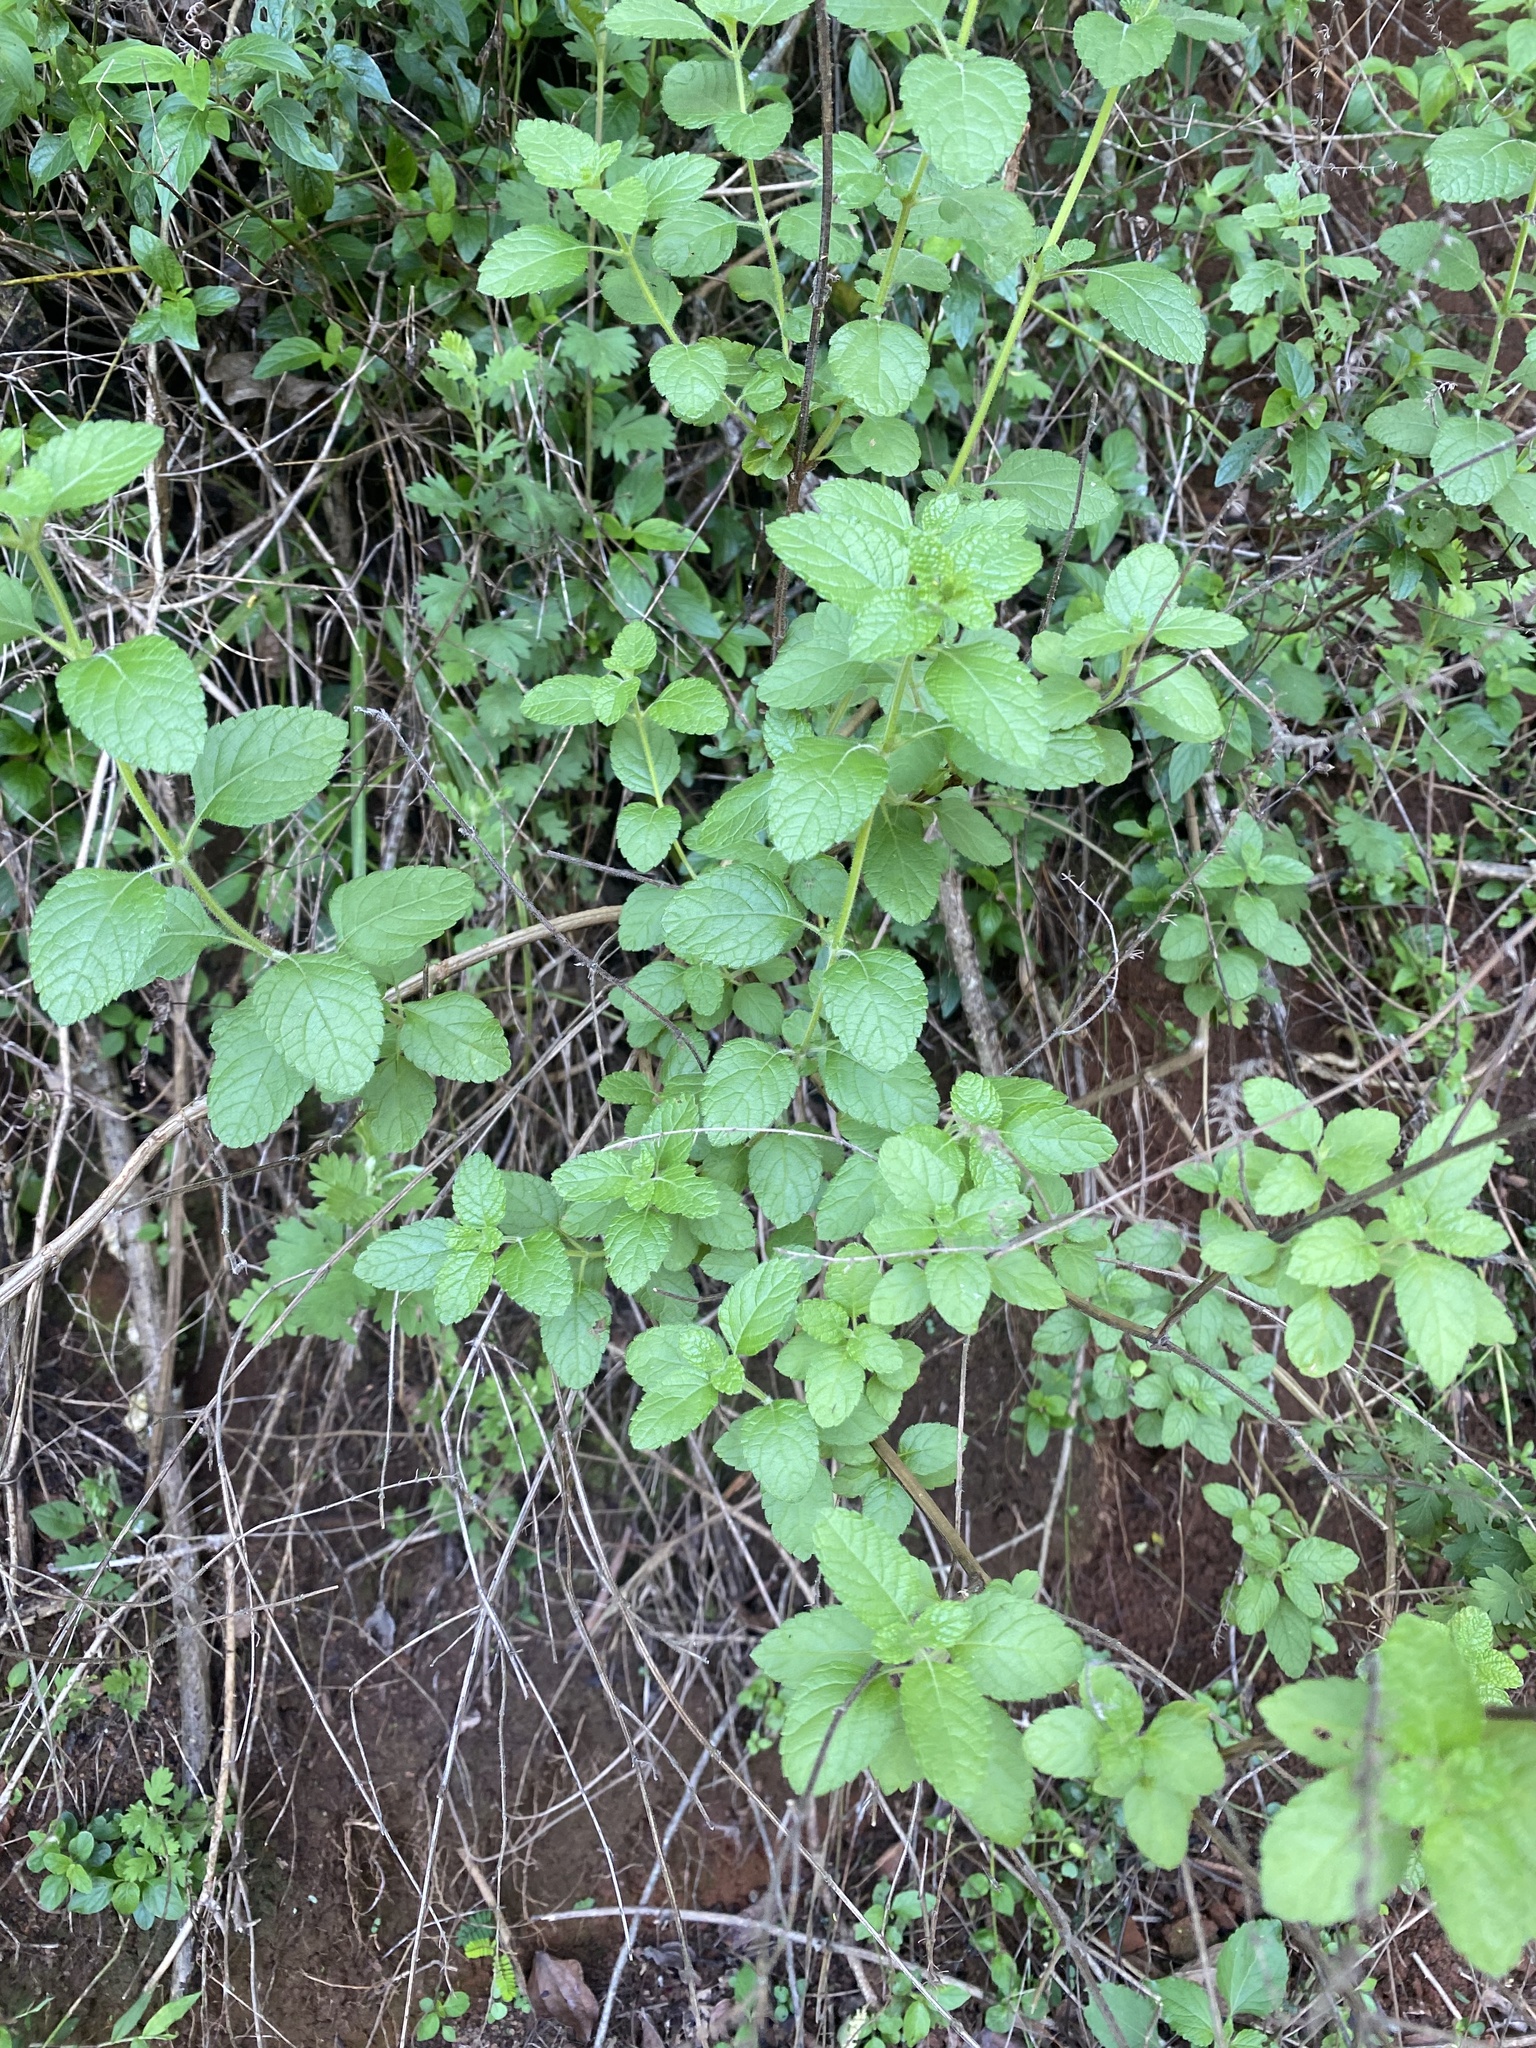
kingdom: Plantae
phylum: Tracheophyta
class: Magnoliopsida
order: Lamiales
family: Lamiaceae
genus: Endostemon
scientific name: Endostemon obtusifolius
